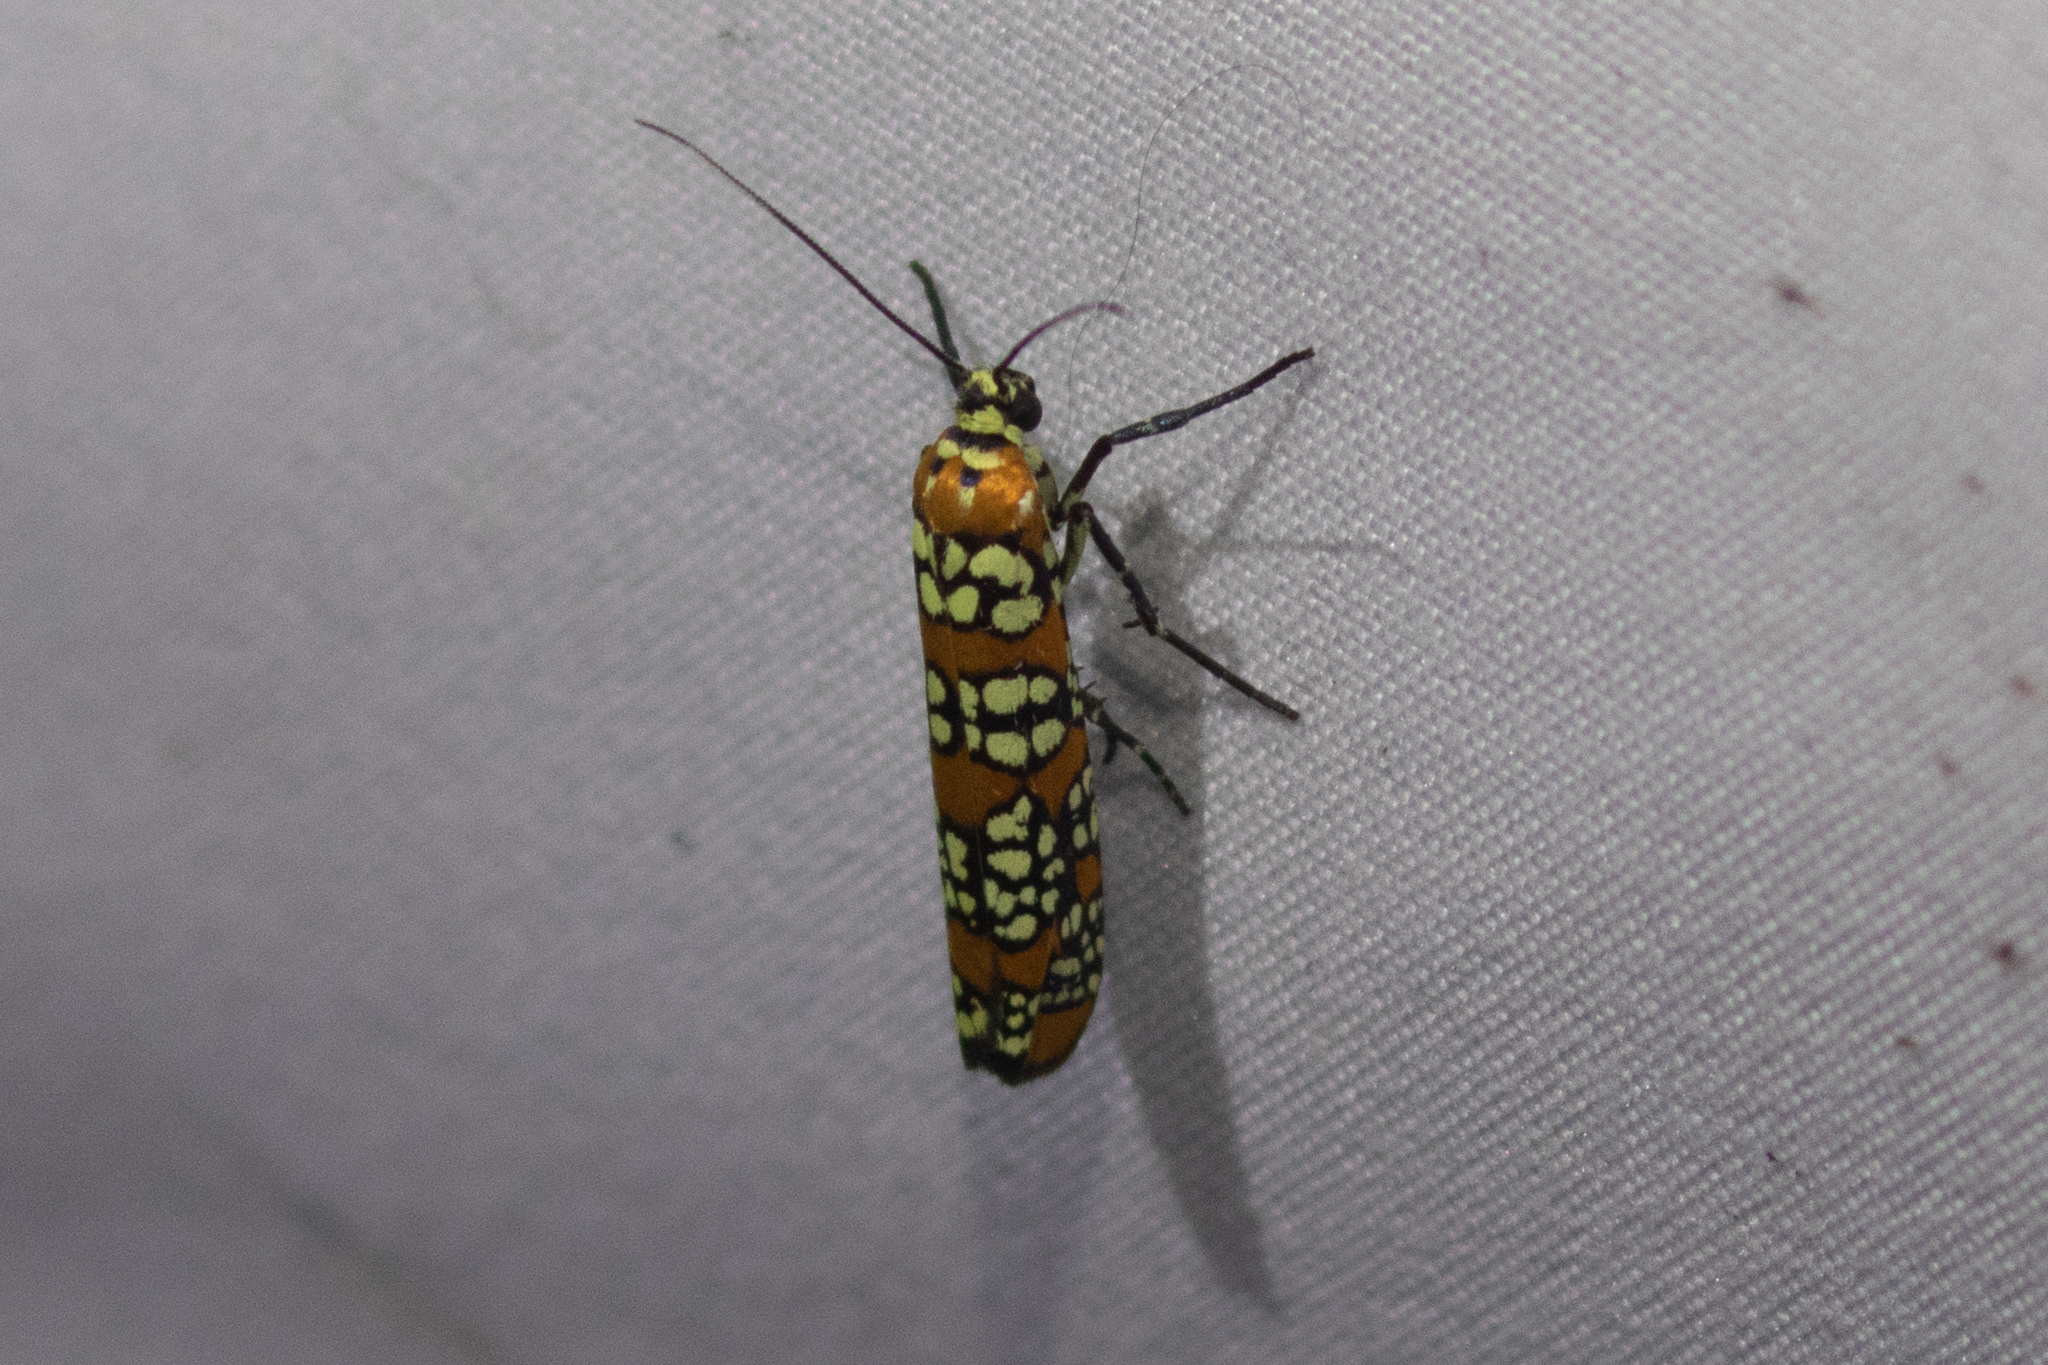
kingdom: Animalia
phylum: Arthropoda
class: Insecta
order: Lepidoptera
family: Attevidae
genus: Atteva
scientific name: Atteva punctella
